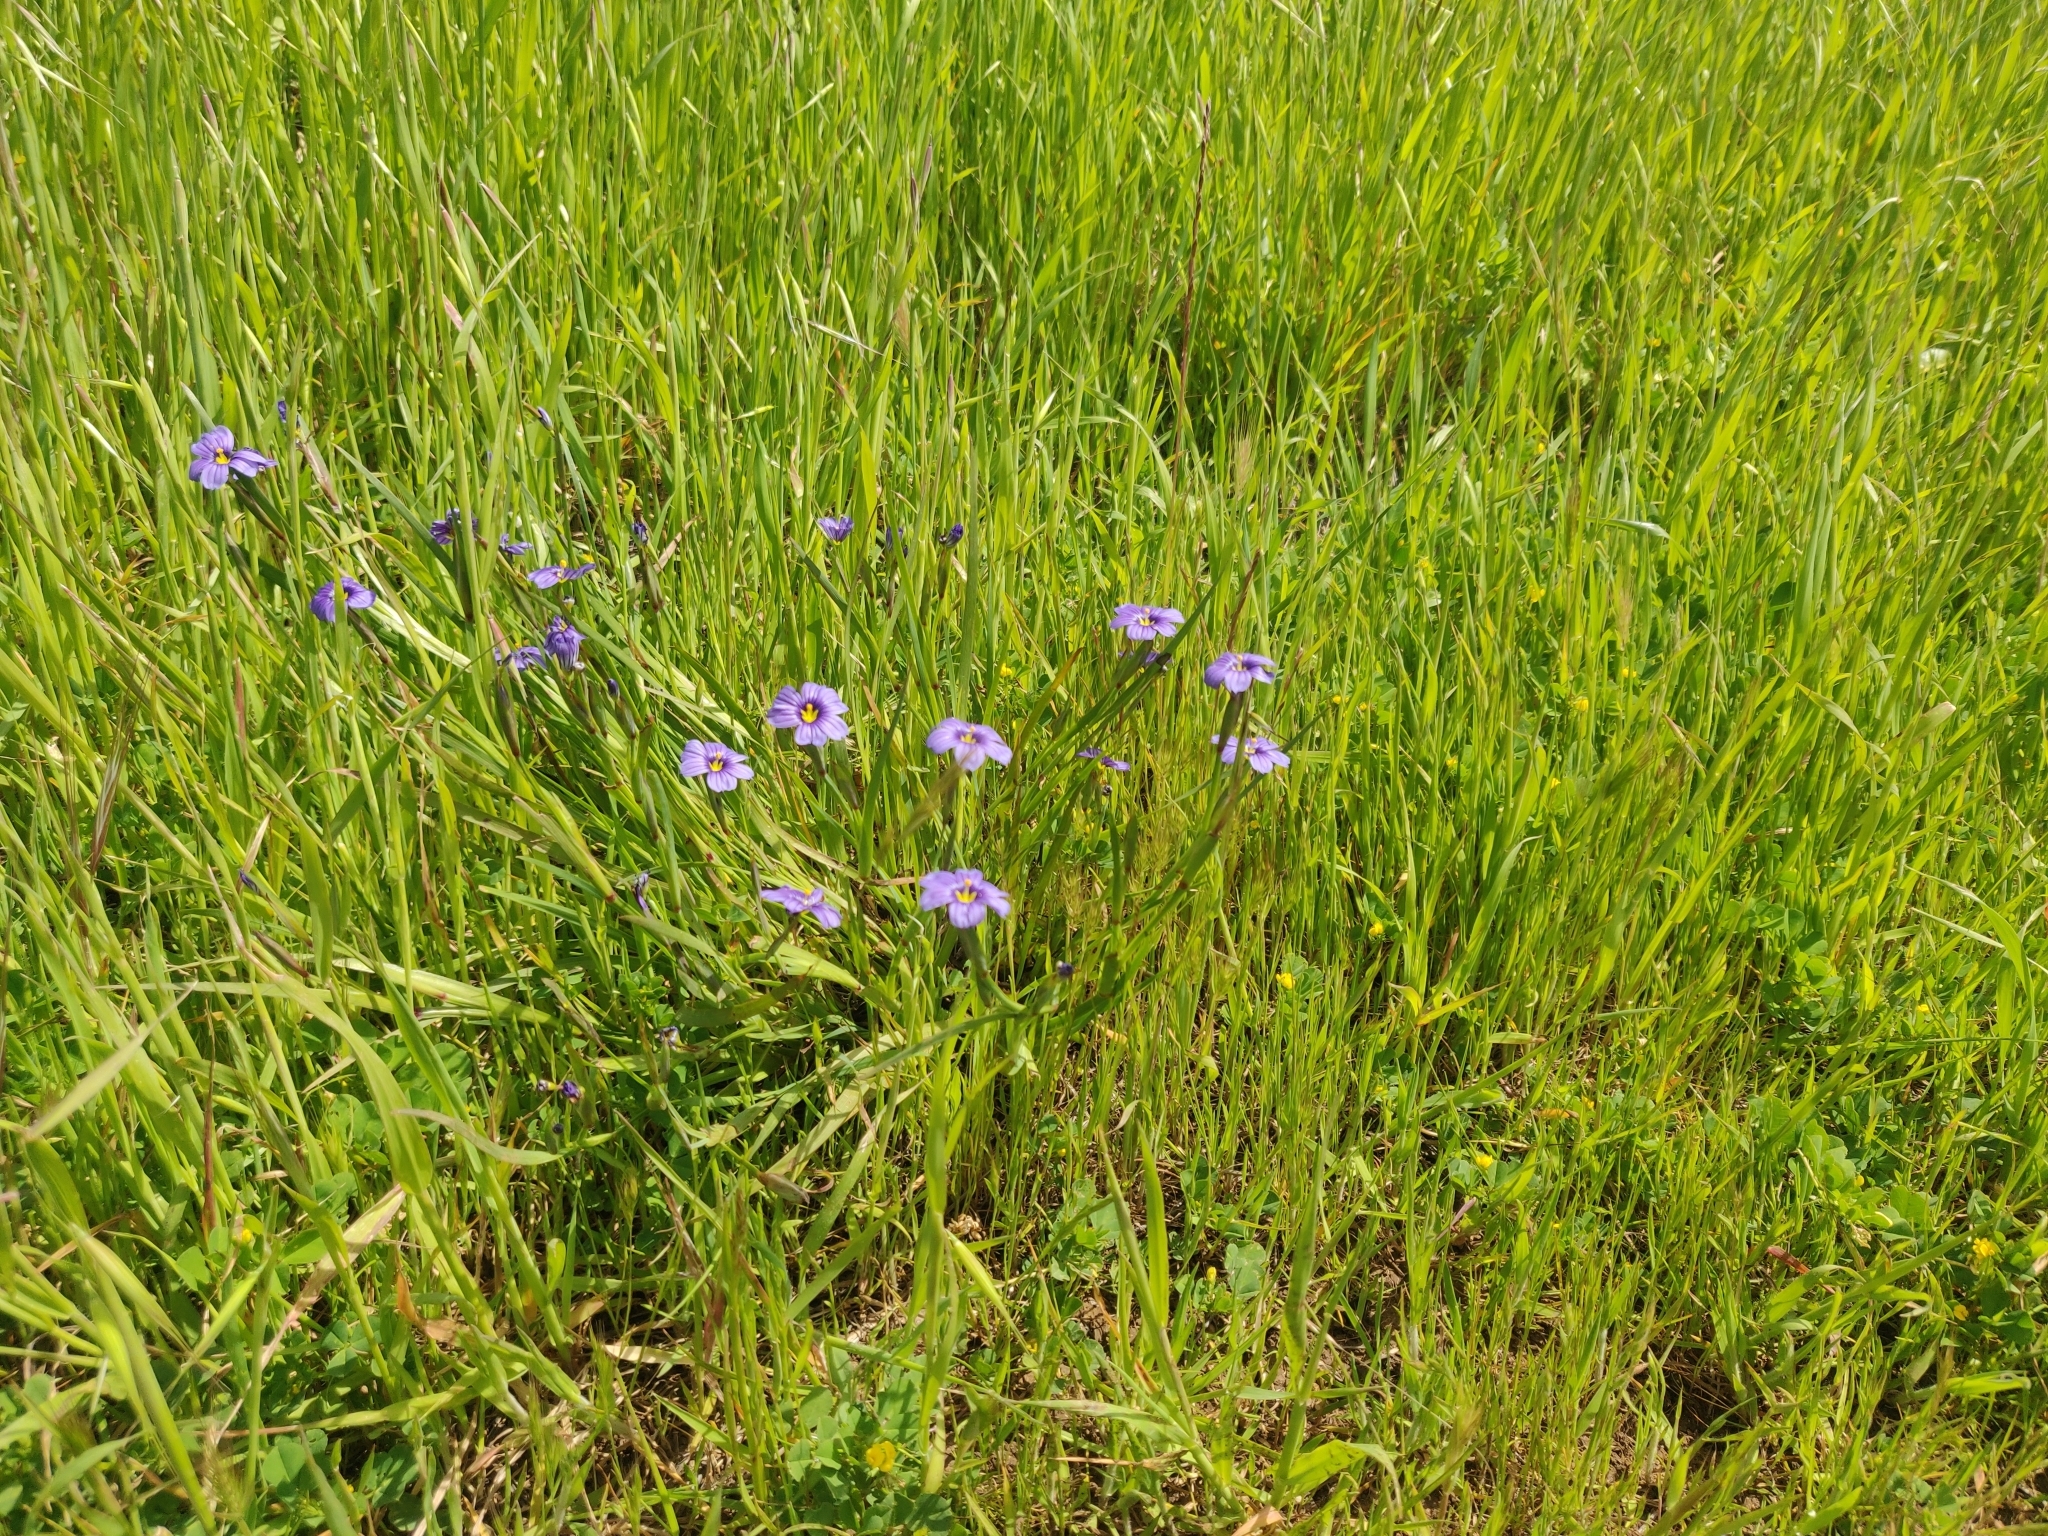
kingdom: Plantae
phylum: Tracheophyta
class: Liliopsida
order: Asparagales
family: Iridaceae
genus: Sisyrinchium
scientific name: Sisyrinchium bellum
